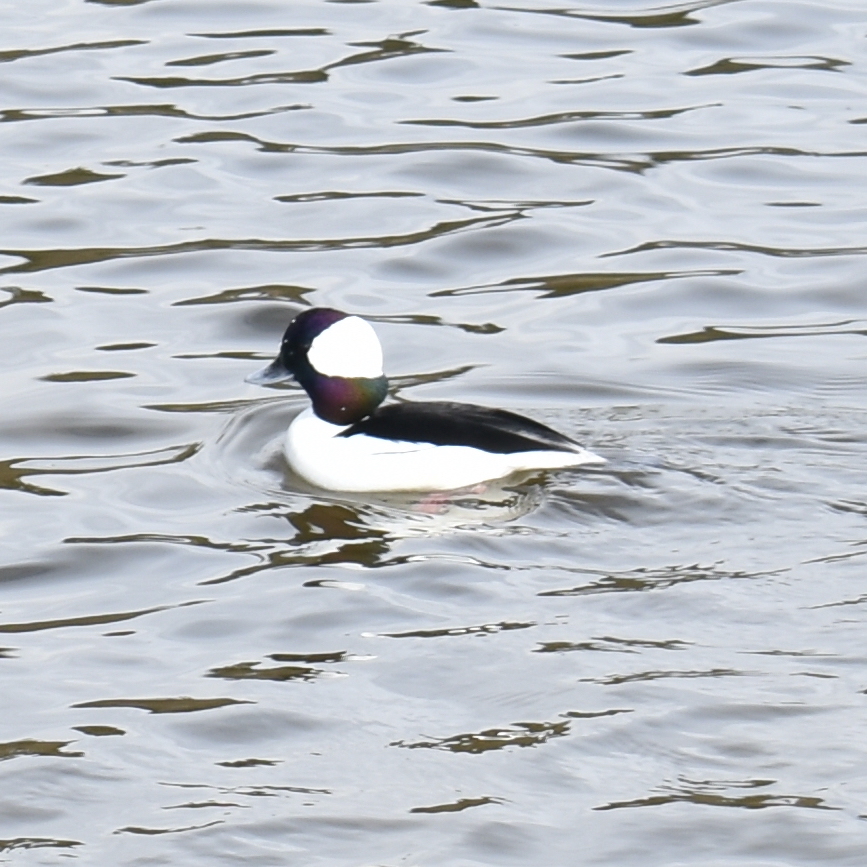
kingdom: Animalia
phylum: Chordata
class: Aves
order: Anseriformes
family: Anatidae
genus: Bucephala
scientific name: Bucephala albeola
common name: Bufflehead
